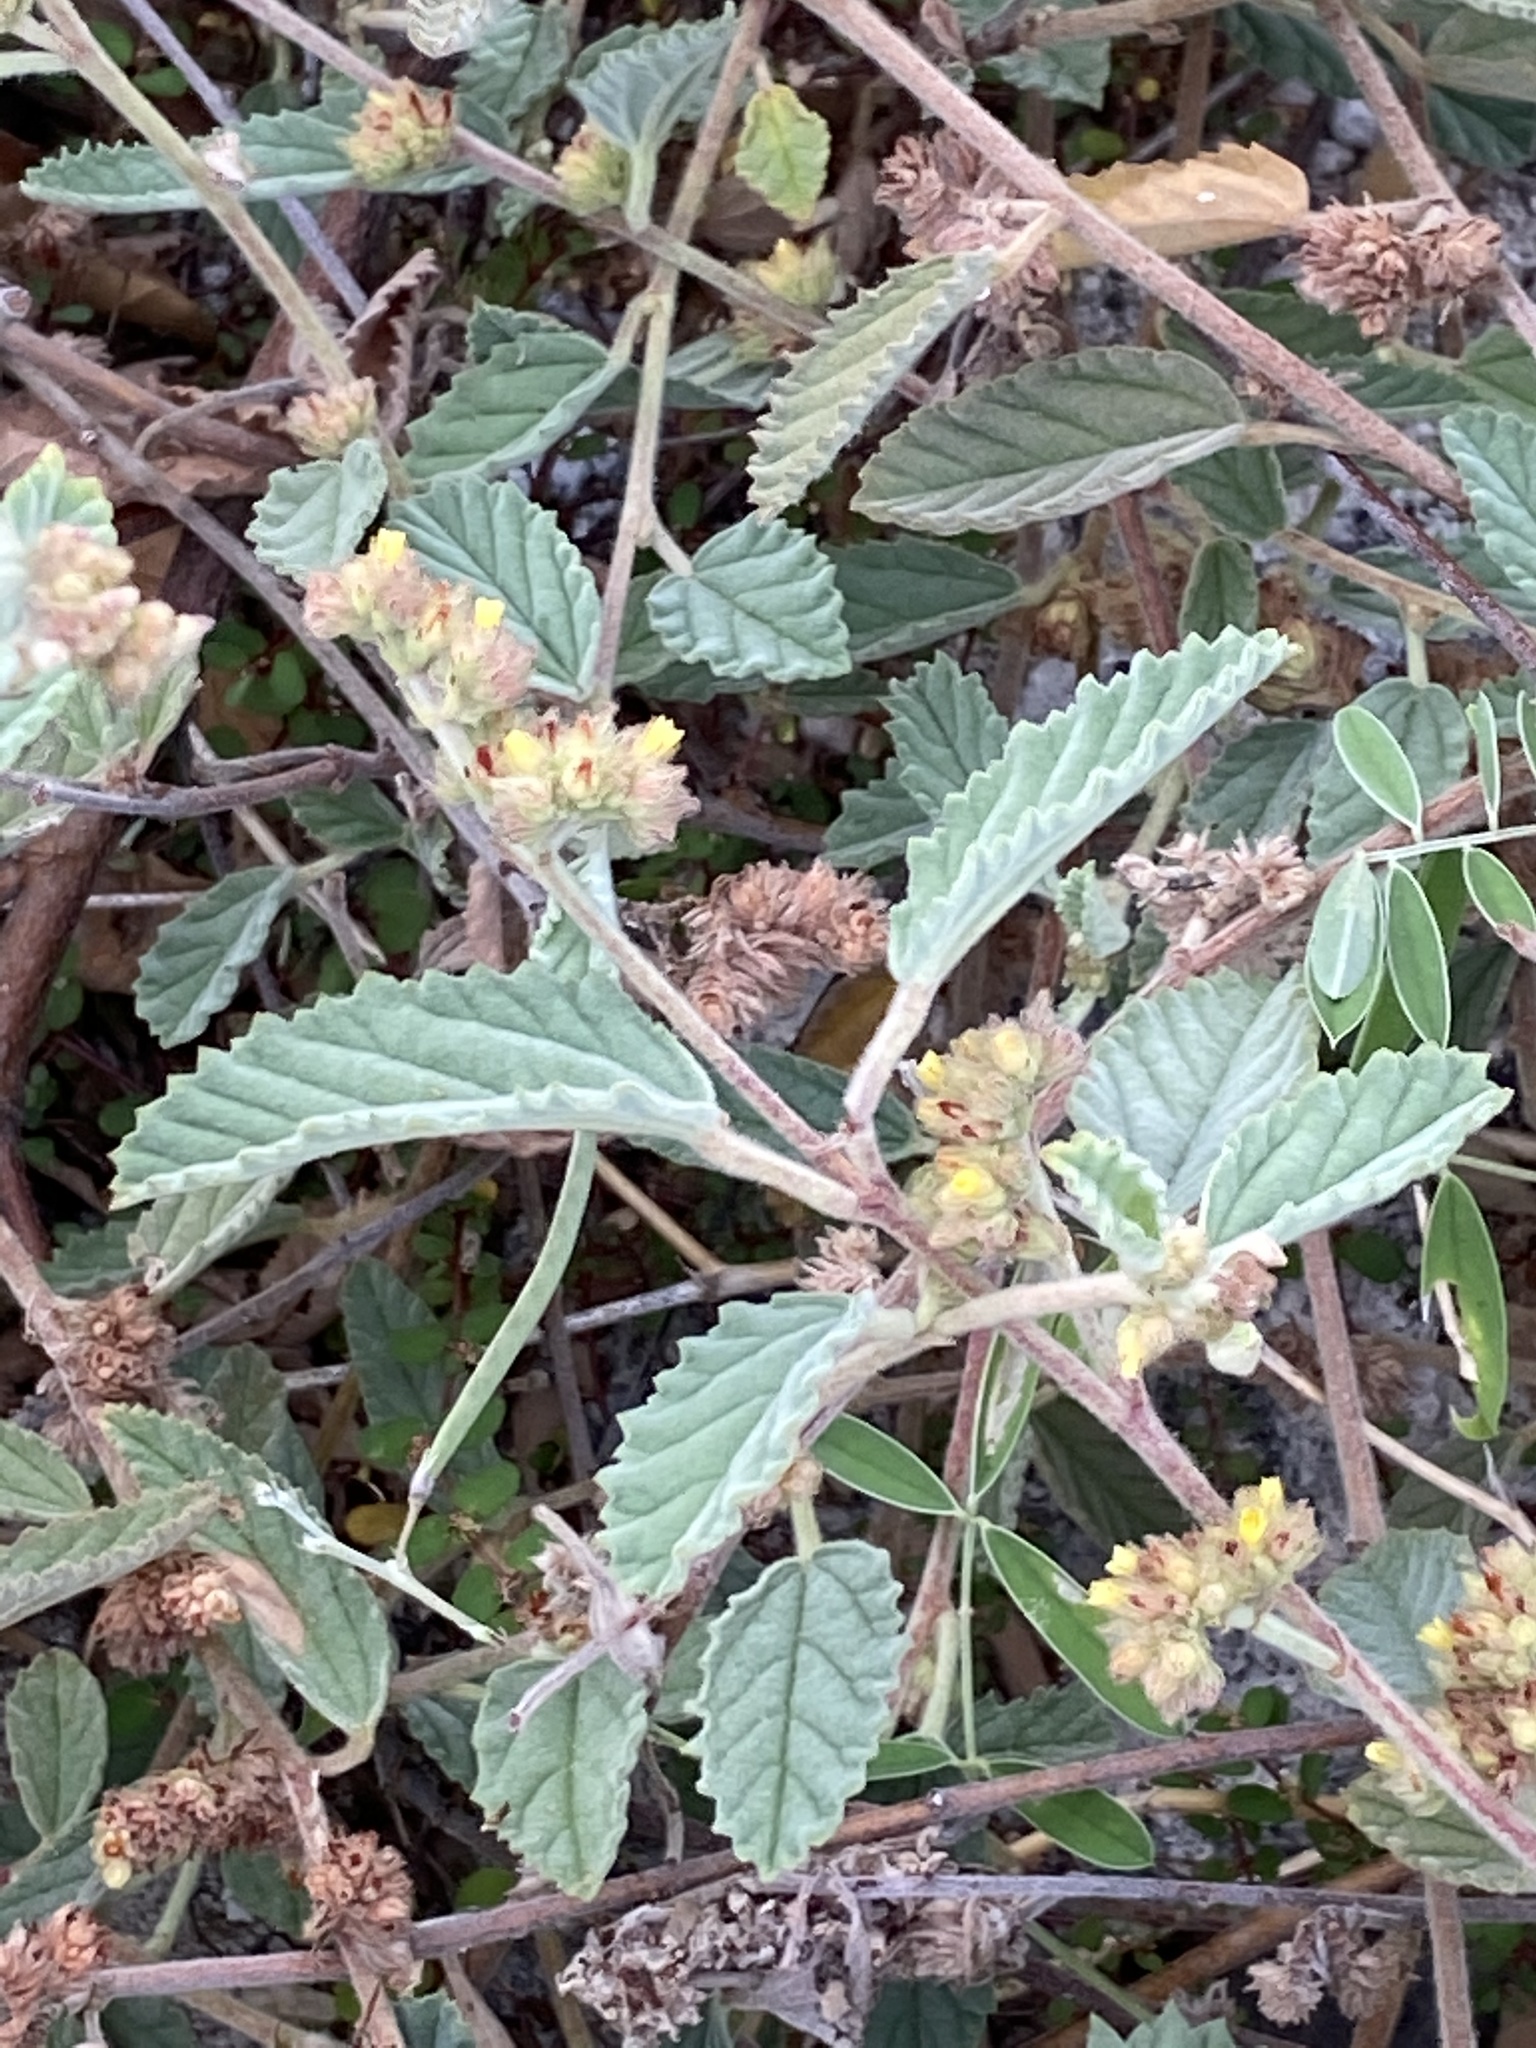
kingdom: Plantae
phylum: Tracheophyta
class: Magnoliopsida
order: Malvales
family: Malvaceae
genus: Waltheria
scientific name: Waltheria indica
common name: Leather-coat
